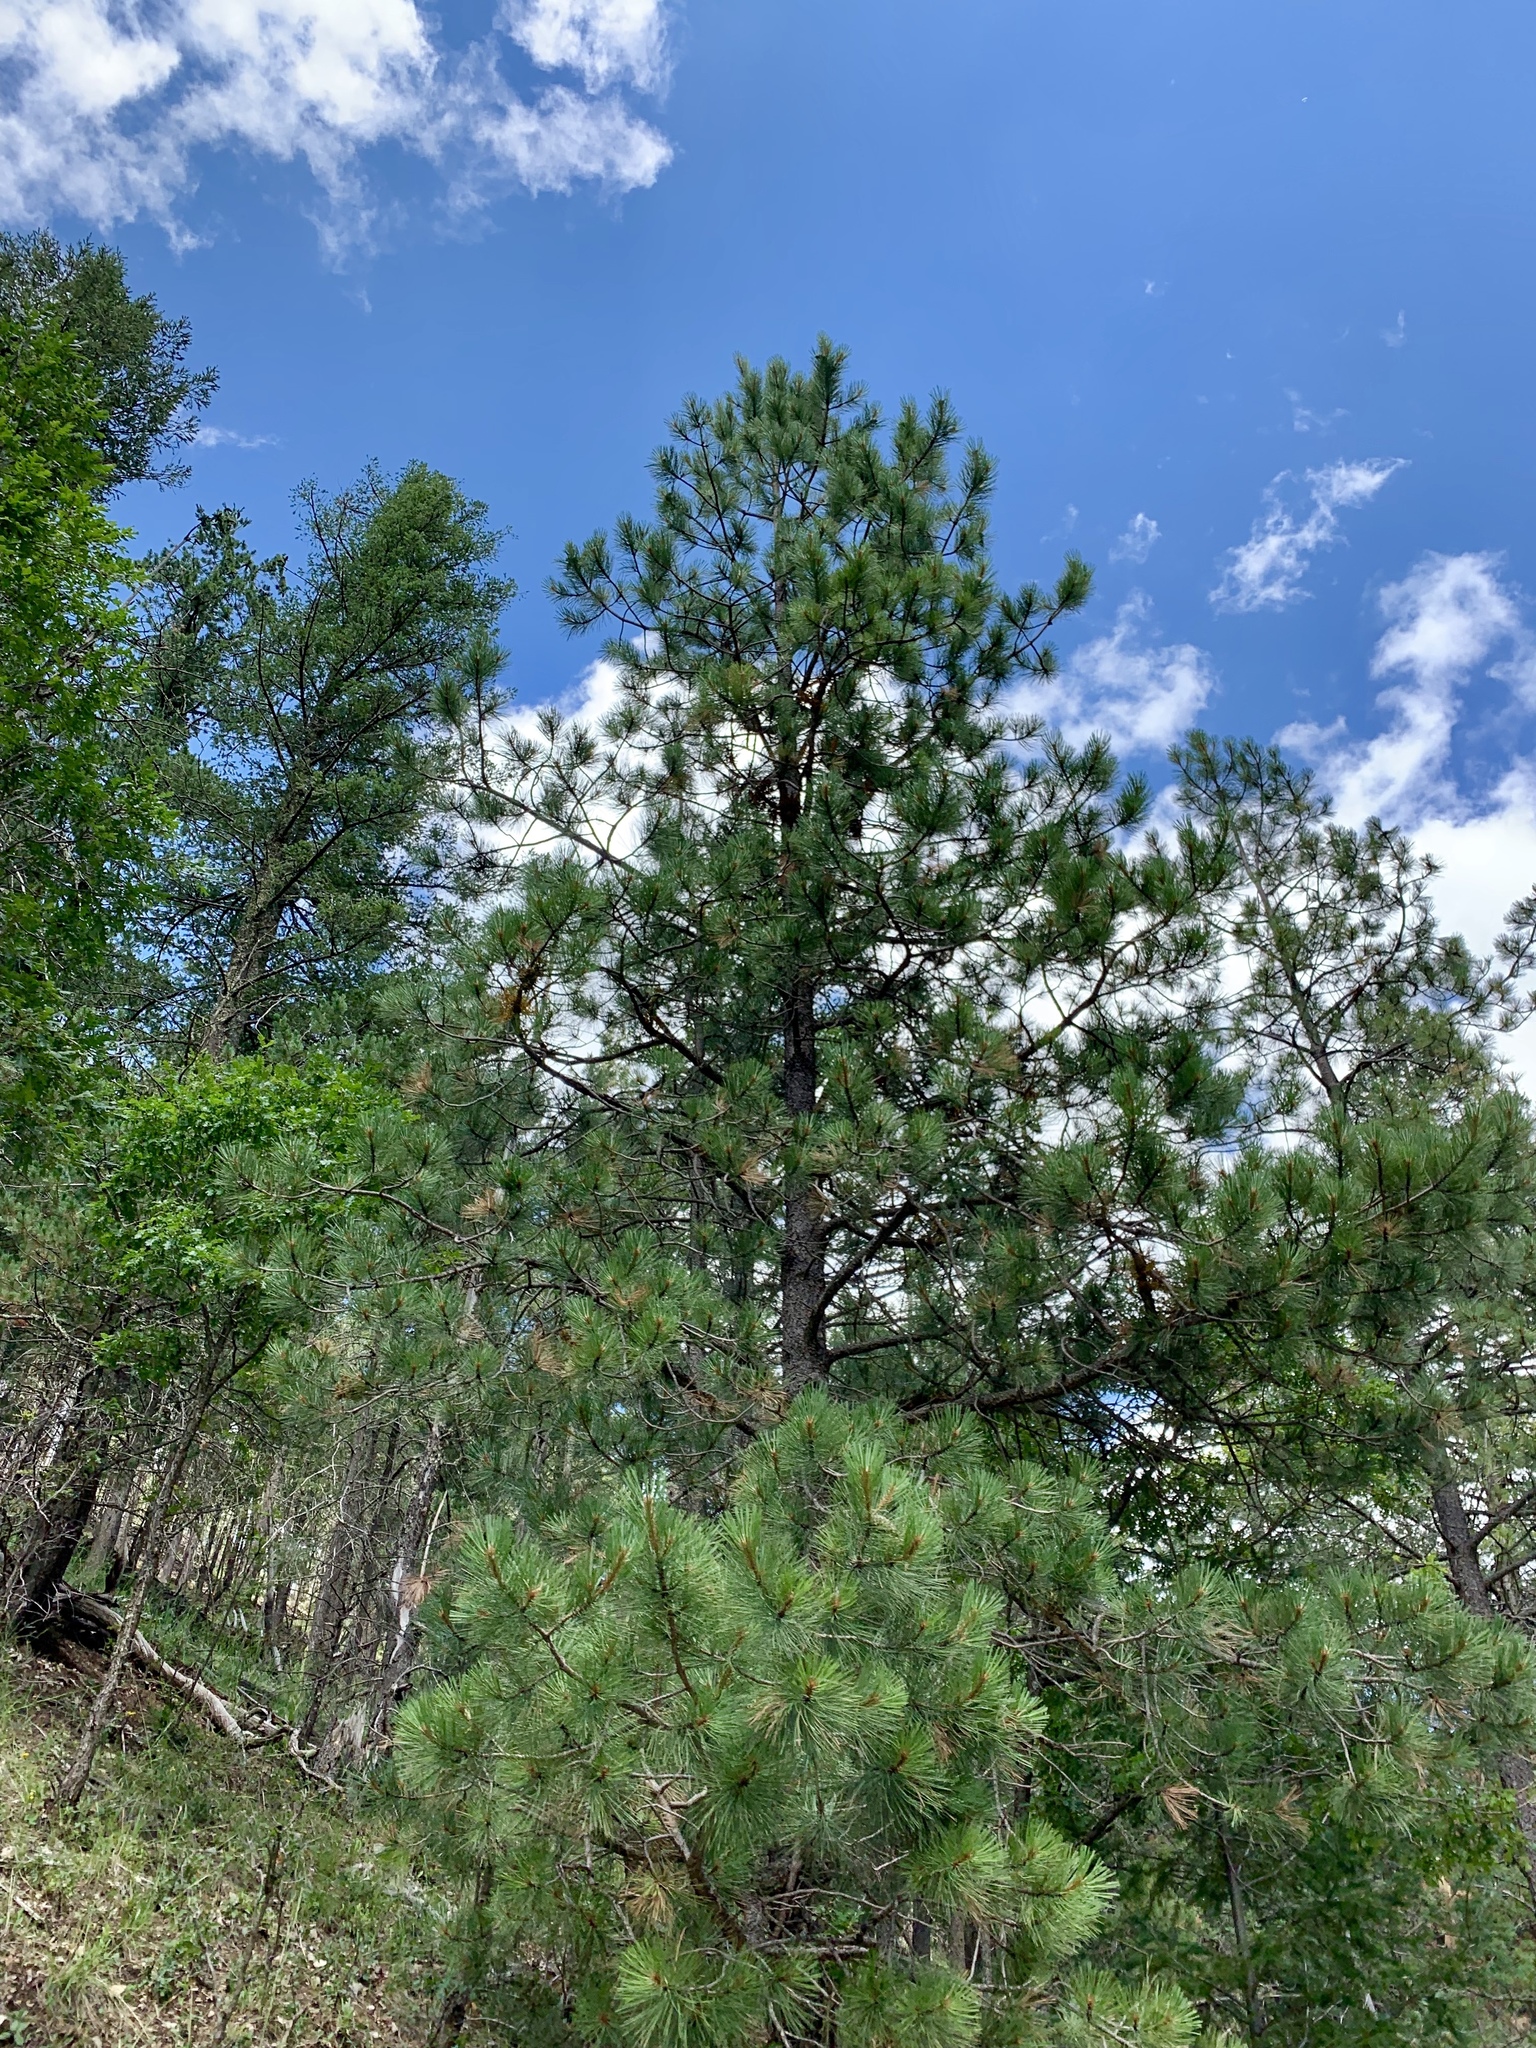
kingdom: Plantae
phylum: Tracheophyta
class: Pinopsida
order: Pinales
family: Pinaceae
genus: Pinus
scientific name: Pinus ponderosa
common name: Western yellow-pine
